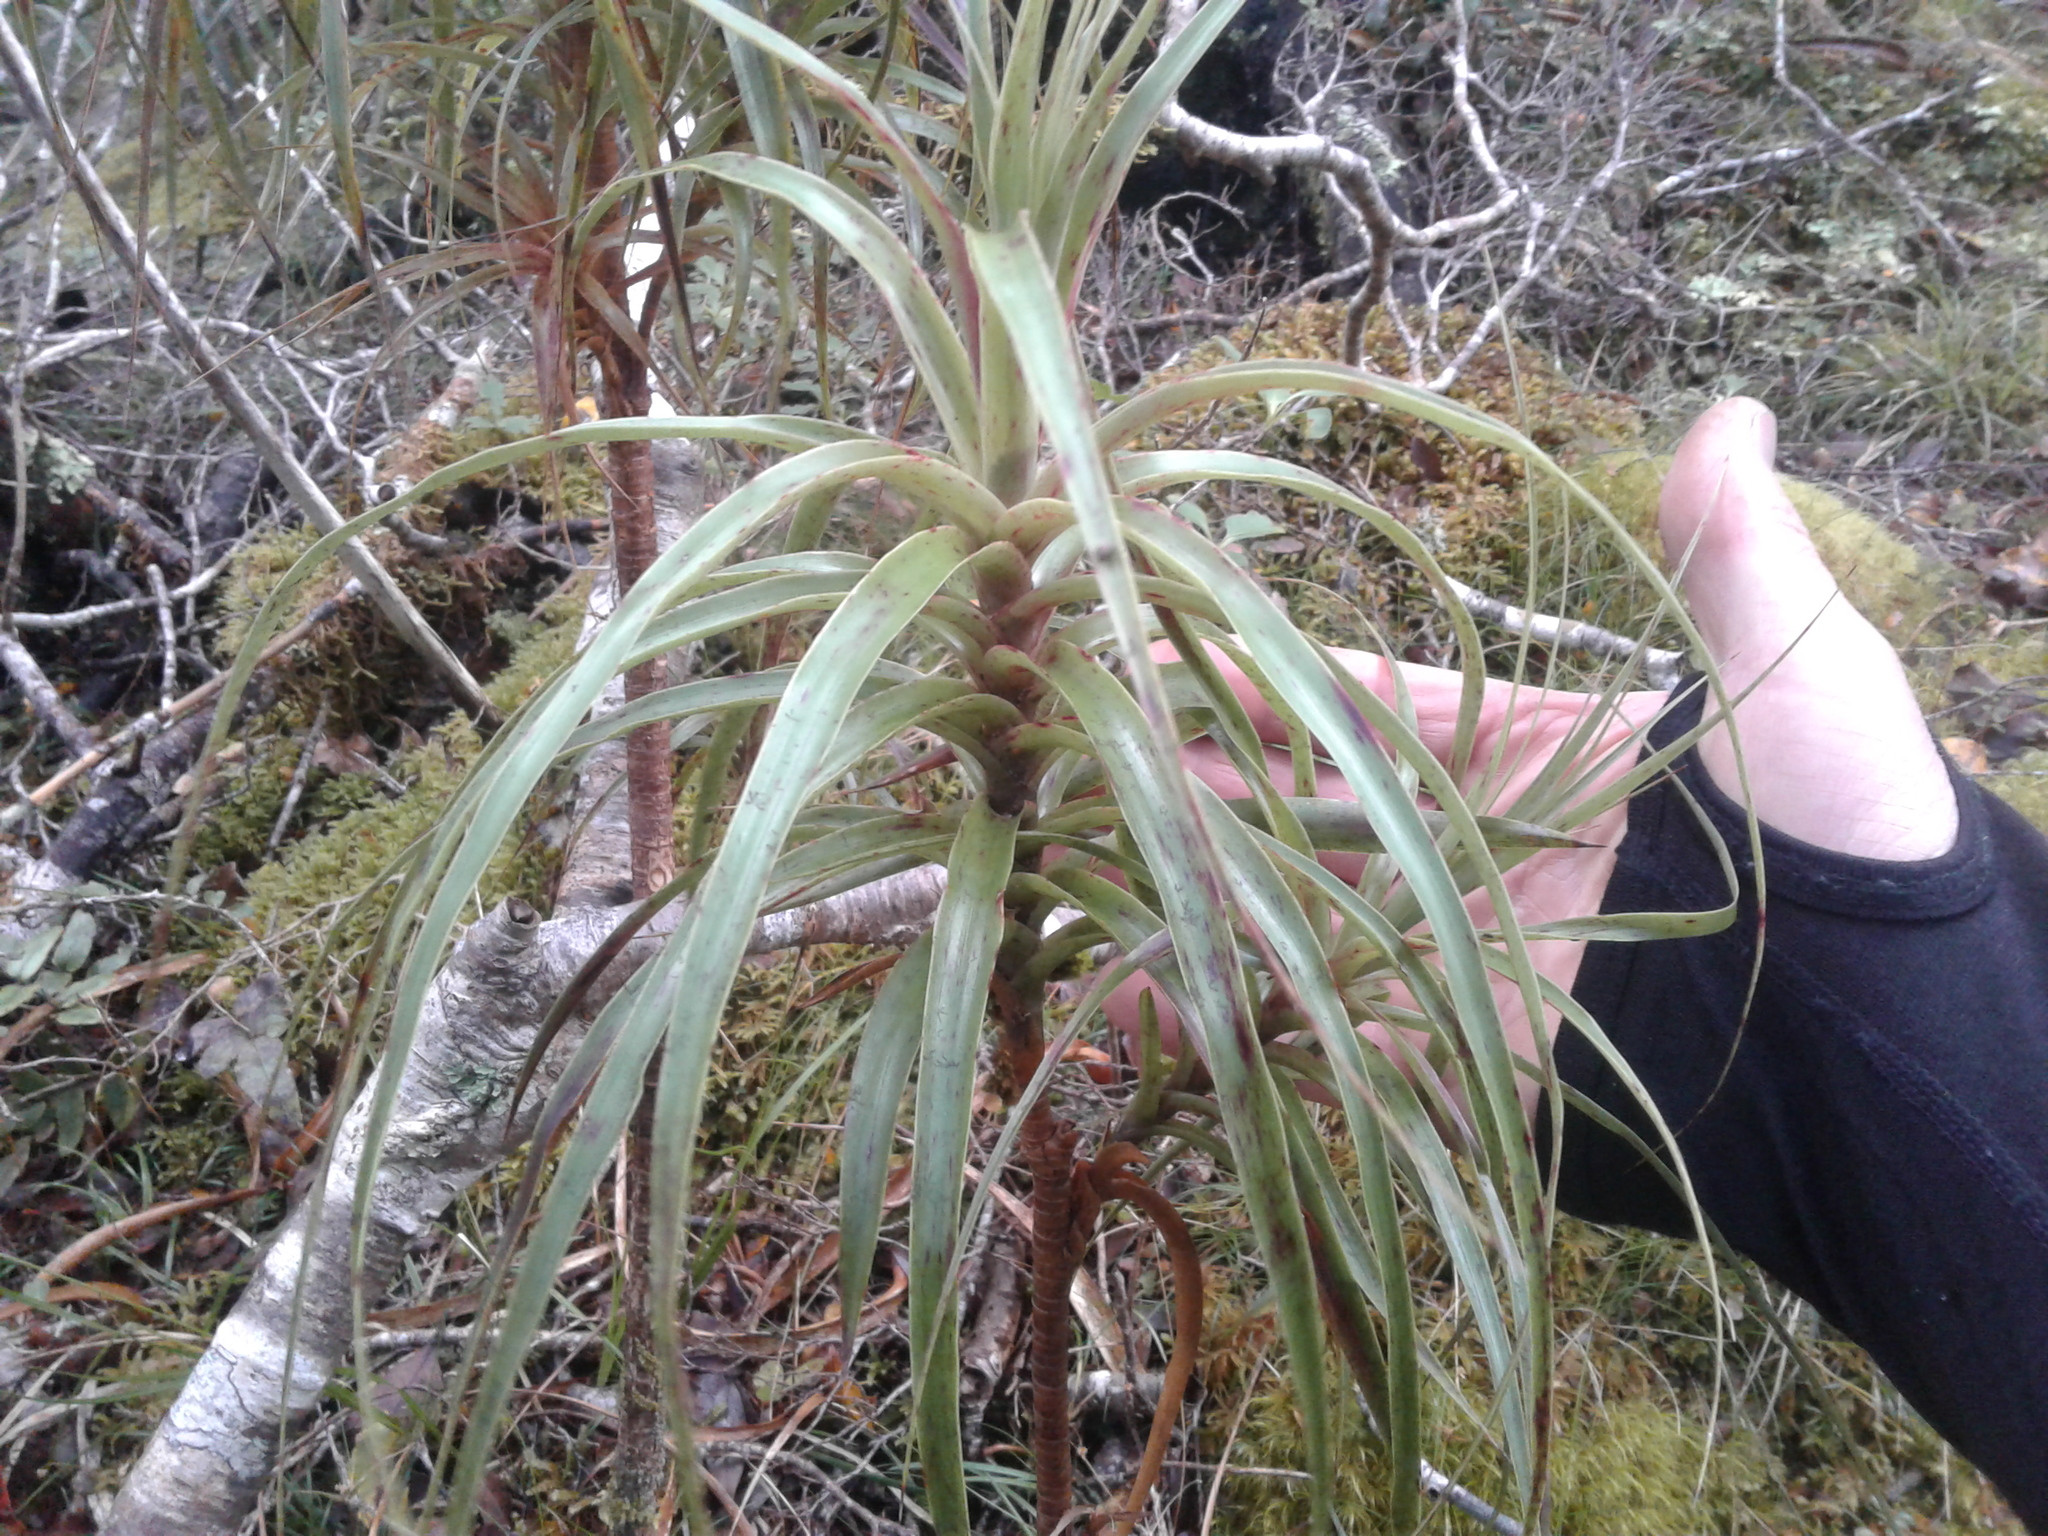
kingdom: Plantae
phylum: Tracheophyta
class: Magnoliopsida
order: Ericales
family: Ericaceae
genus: Dracophyllum
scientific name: Dracophyllum townsonii
